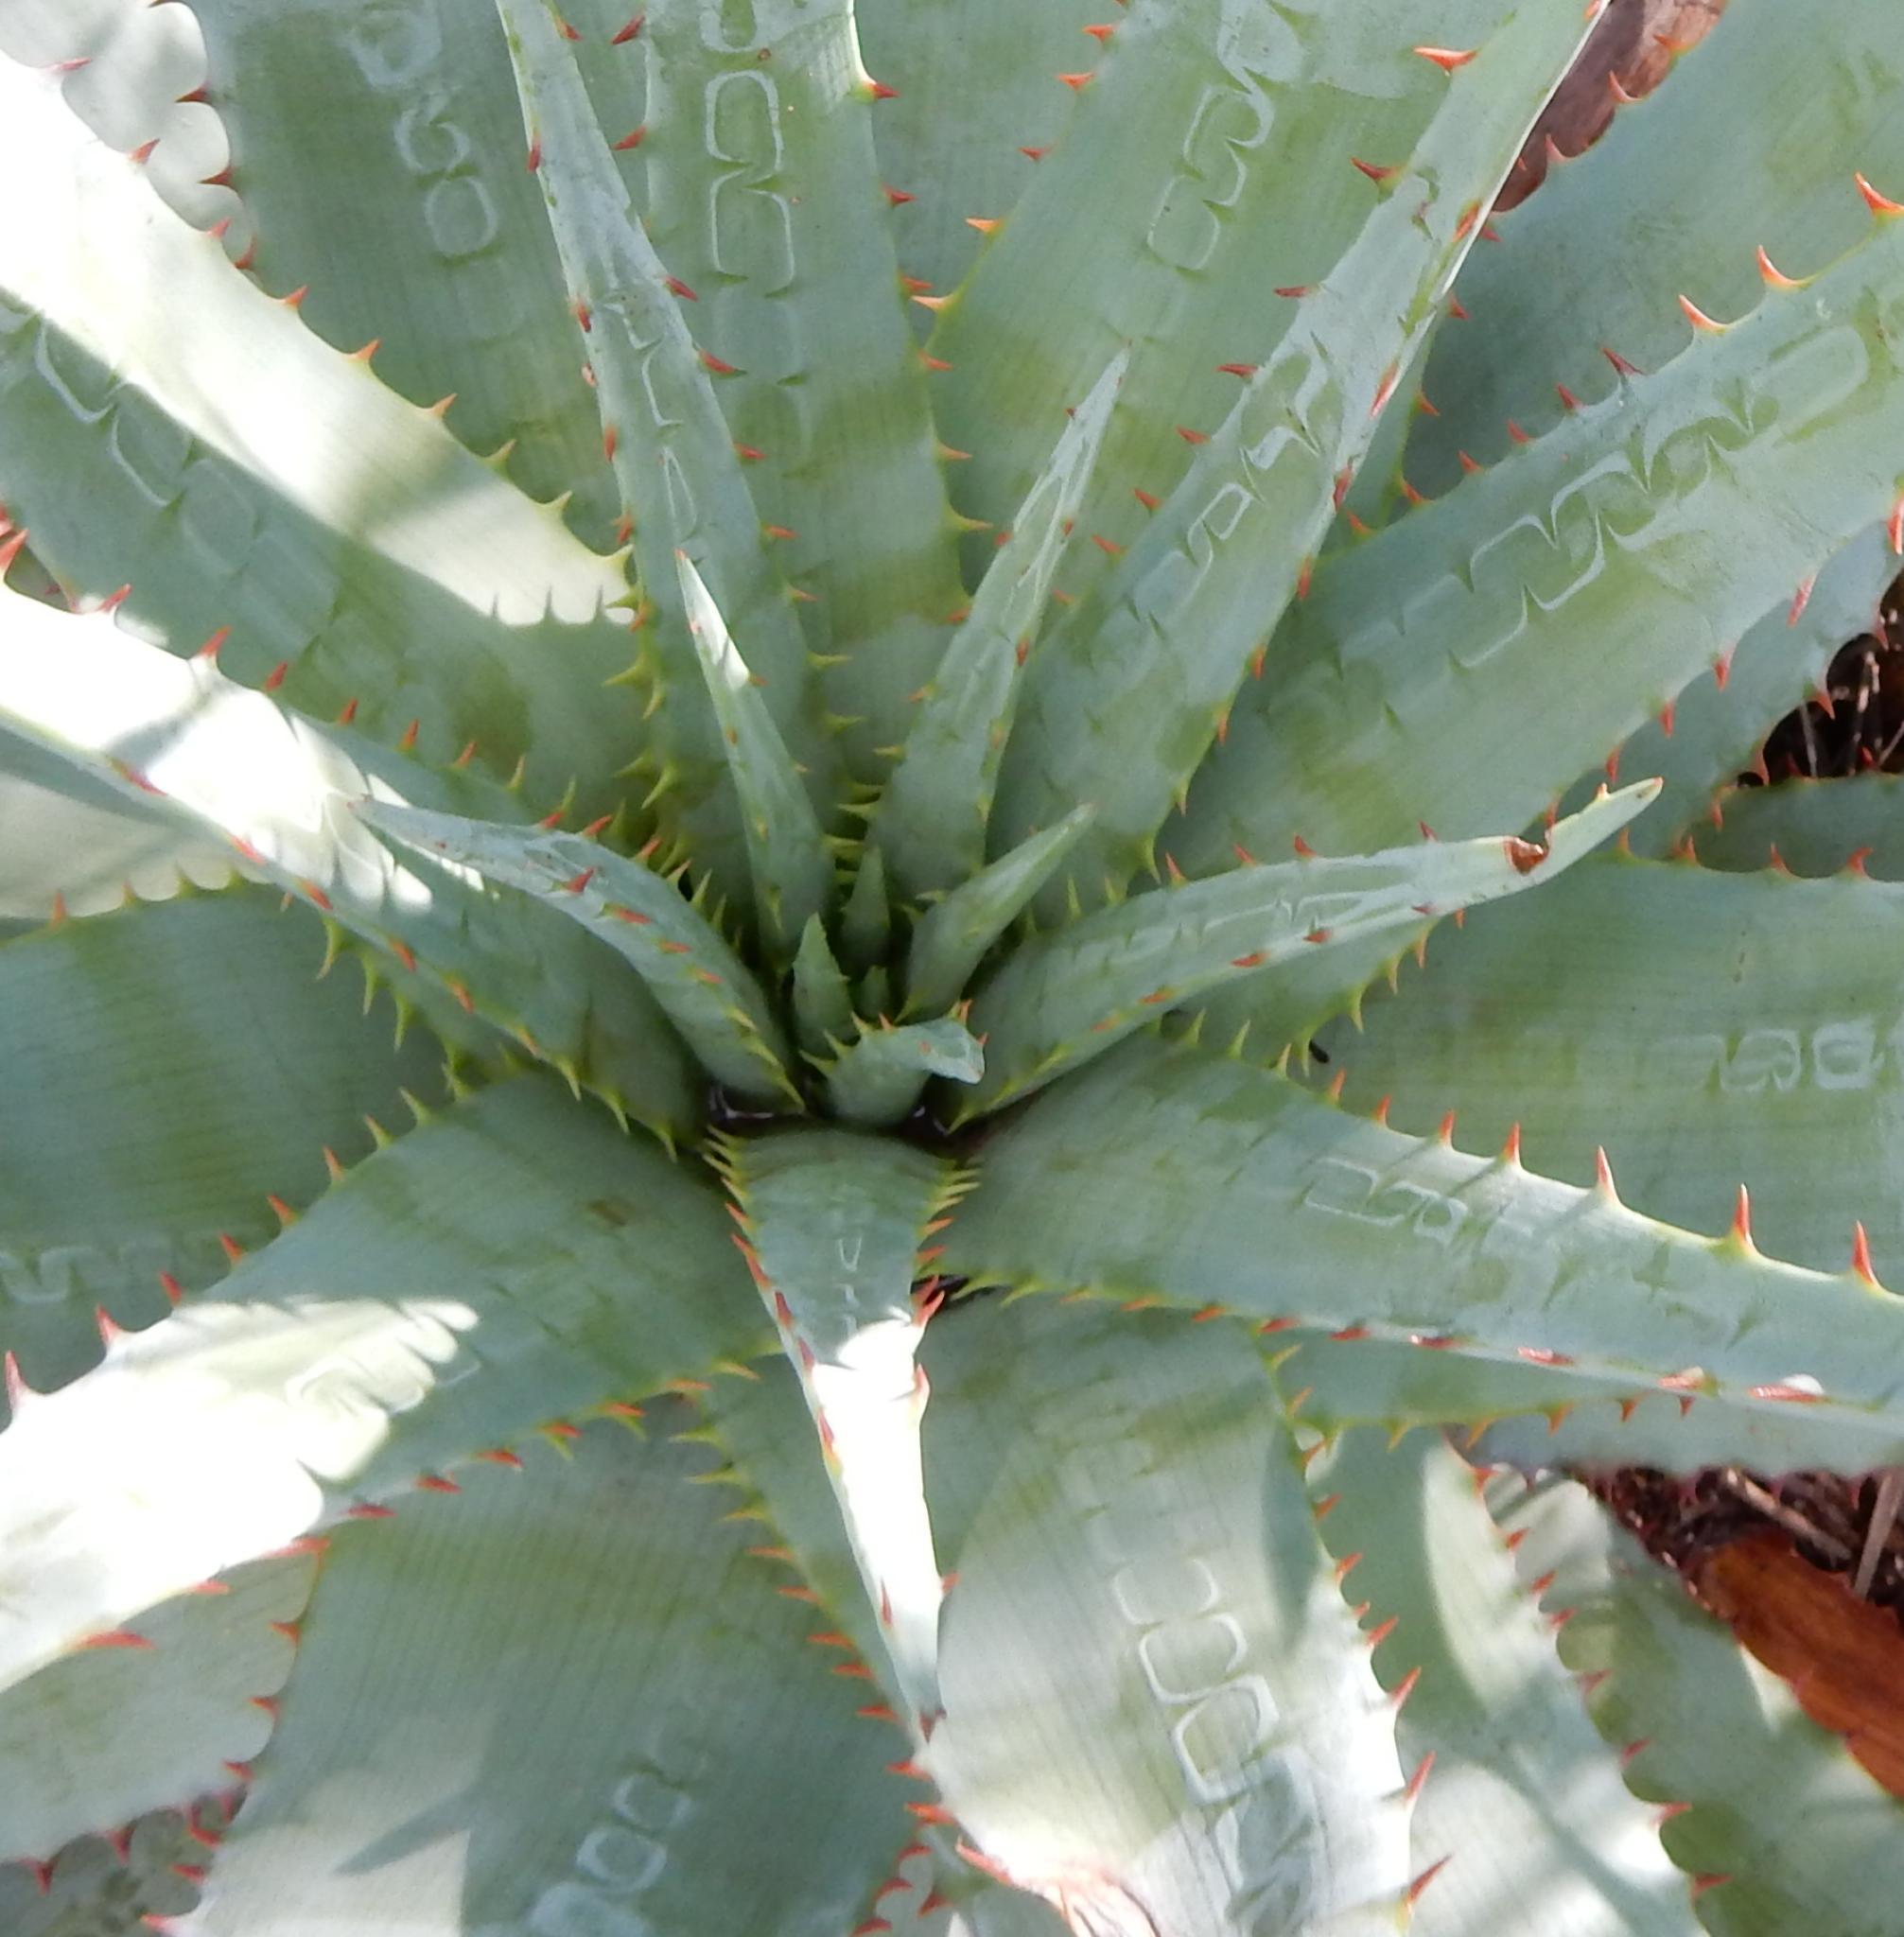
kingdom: Plantae
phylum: Tracheophyta
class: Liliopsida
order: Asparagales
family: Asphodelaceae
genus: Aloe
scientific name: Aloe pretoriensis
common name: Pretoria aloe
